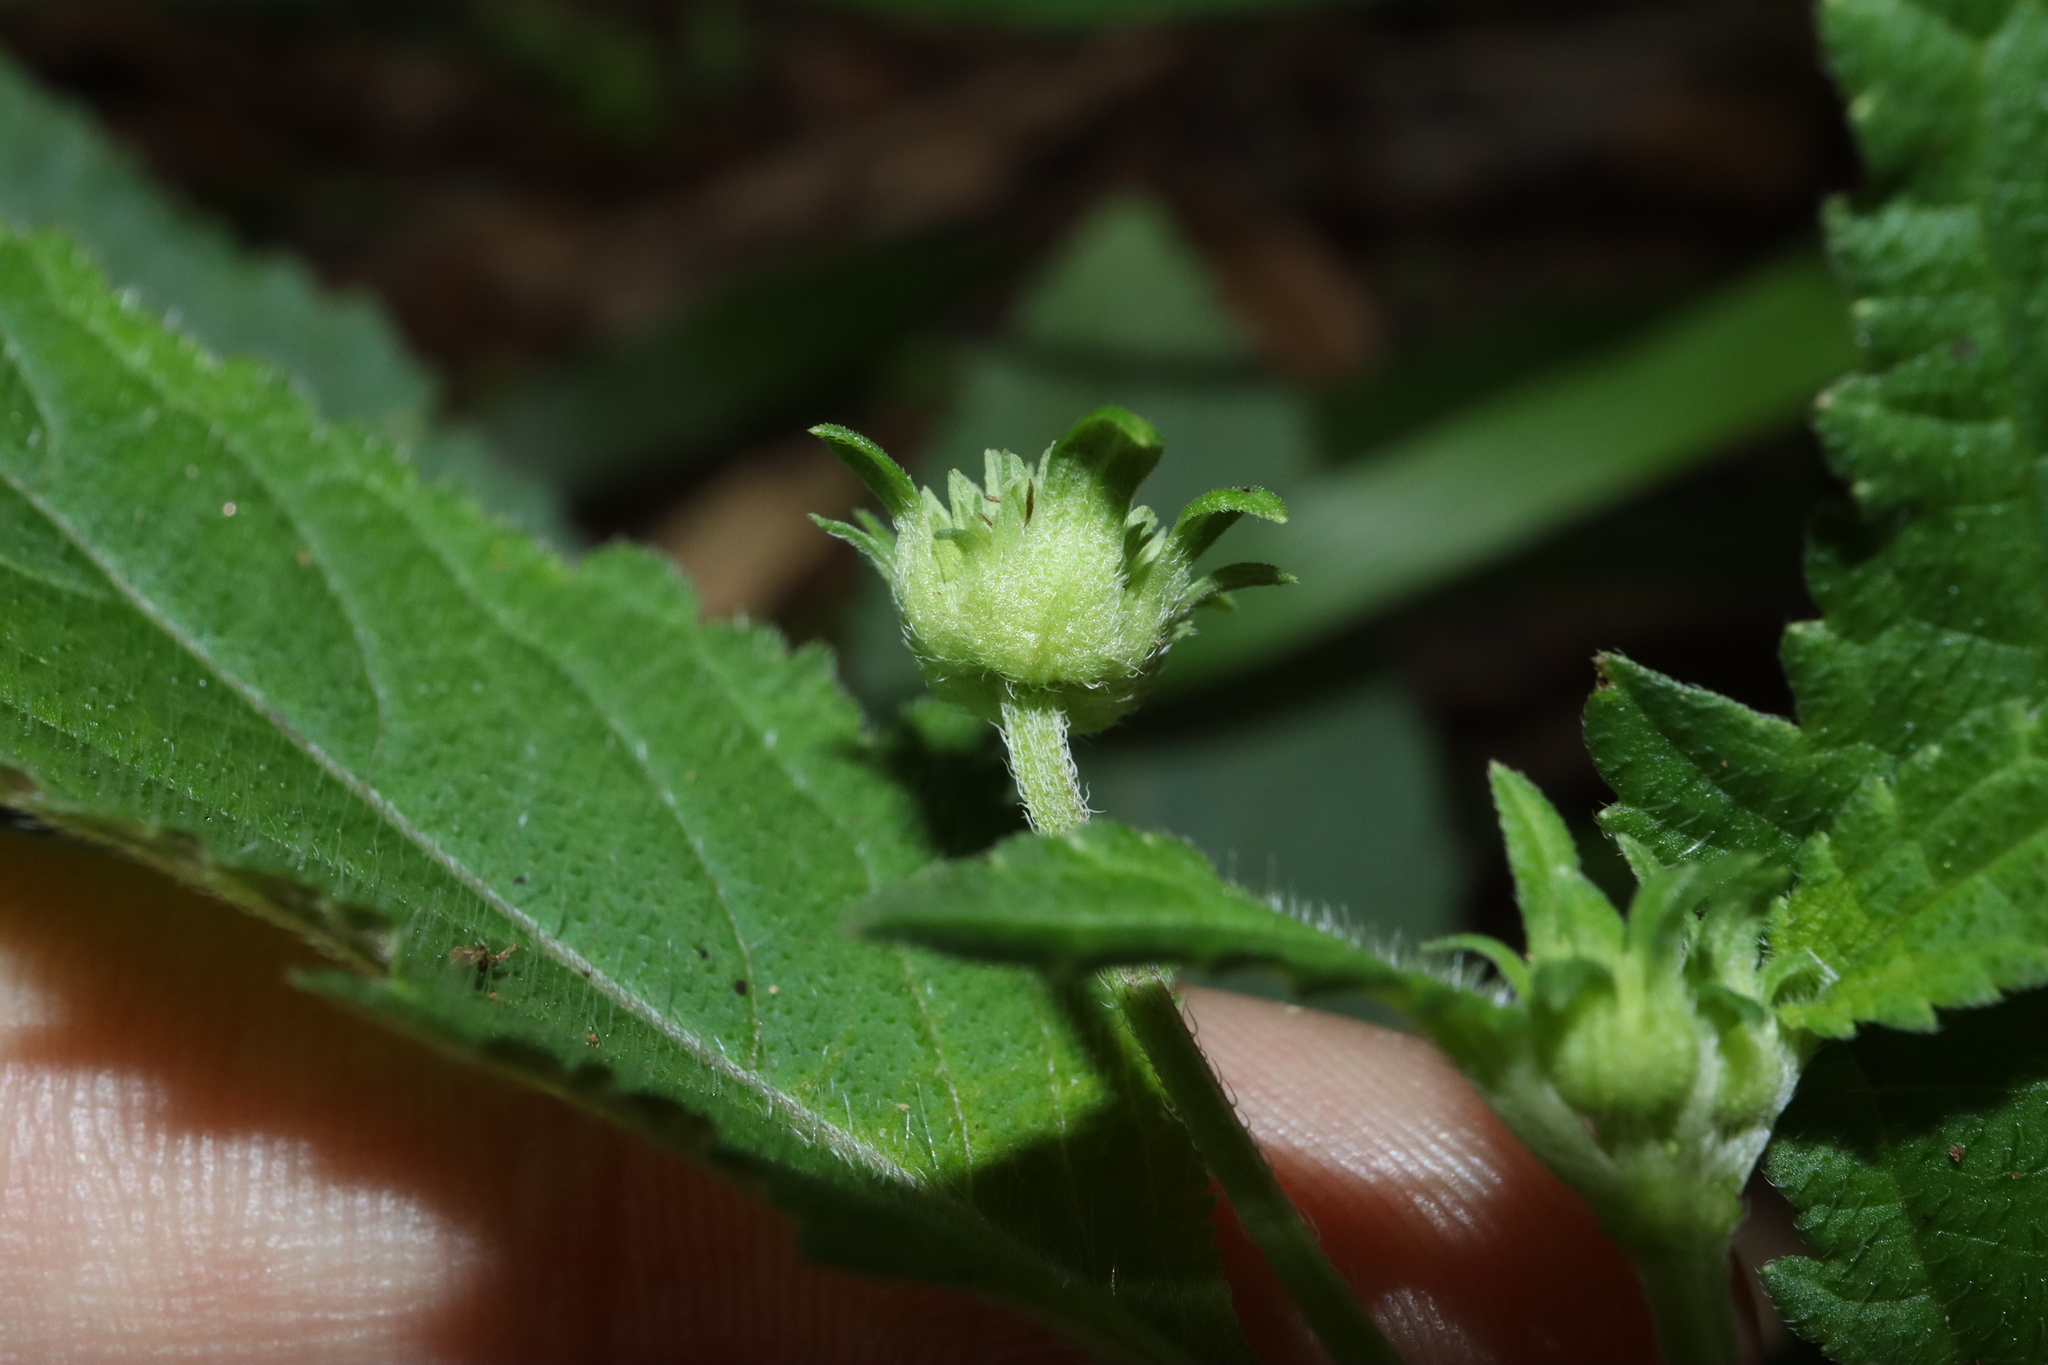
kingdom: Plantae
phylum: Tracheophyta
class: Magnoliopsida
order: Lamiales
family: Lamiaceae
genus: Hyptis
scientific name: Hyptis capitata
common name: False ironwort
